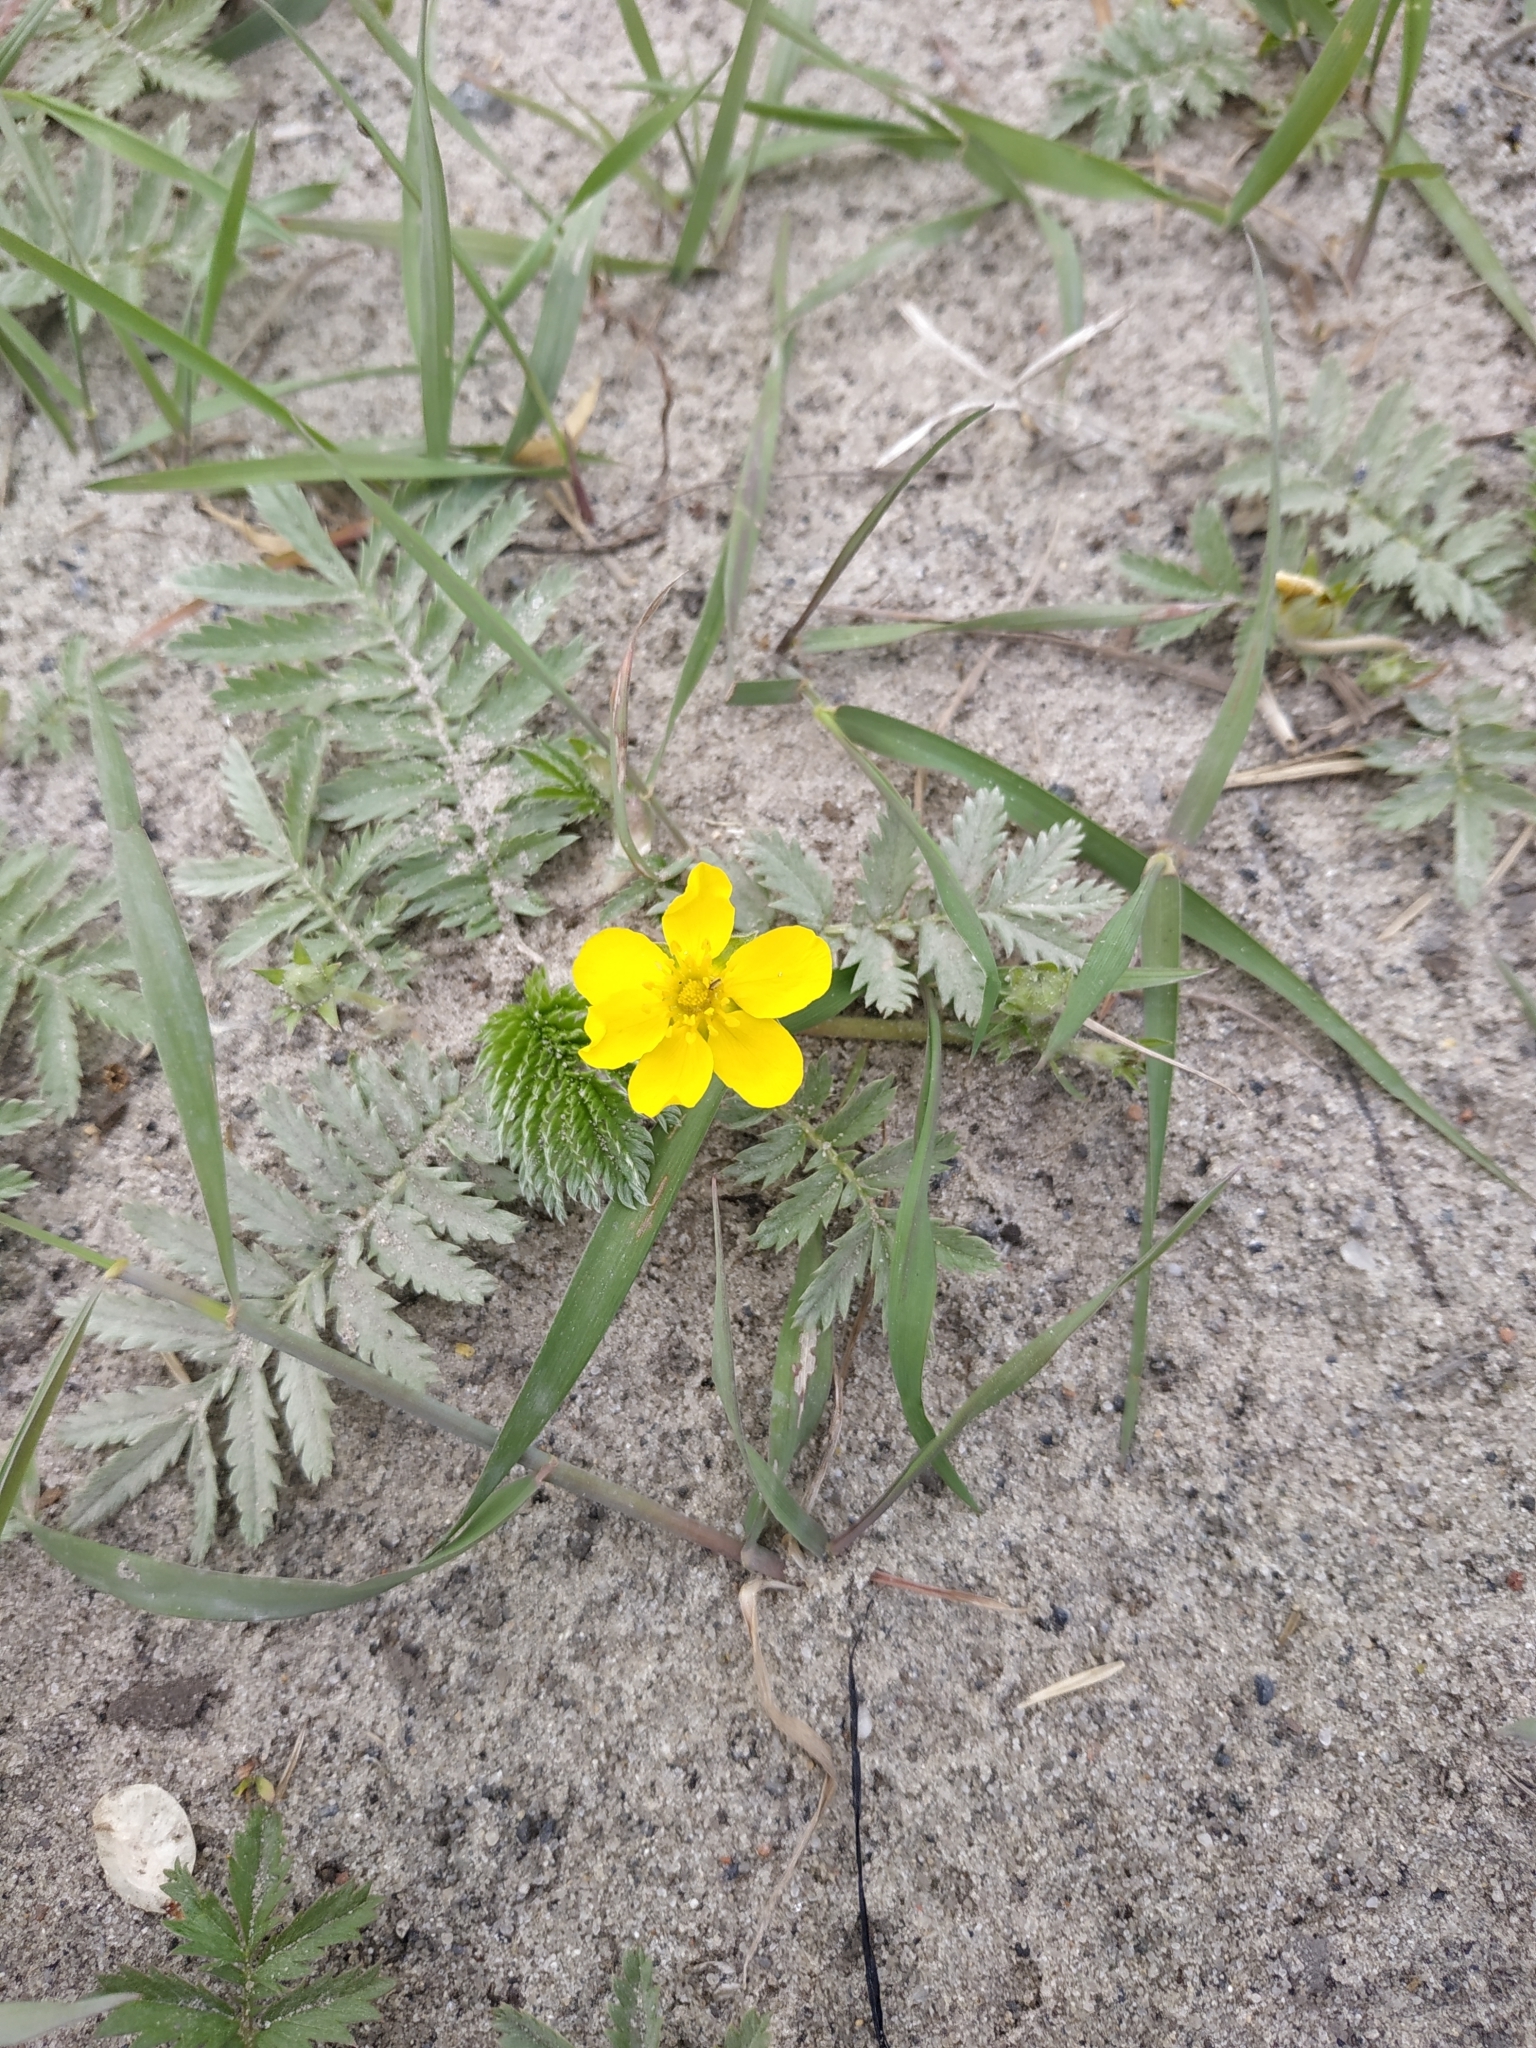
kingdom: Plantae
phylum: Tracheophyta
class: Magnoliopsida
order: Rosales
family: Rosaceae
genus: Argentina
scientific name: Argentina anserina
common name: Common silverweed
